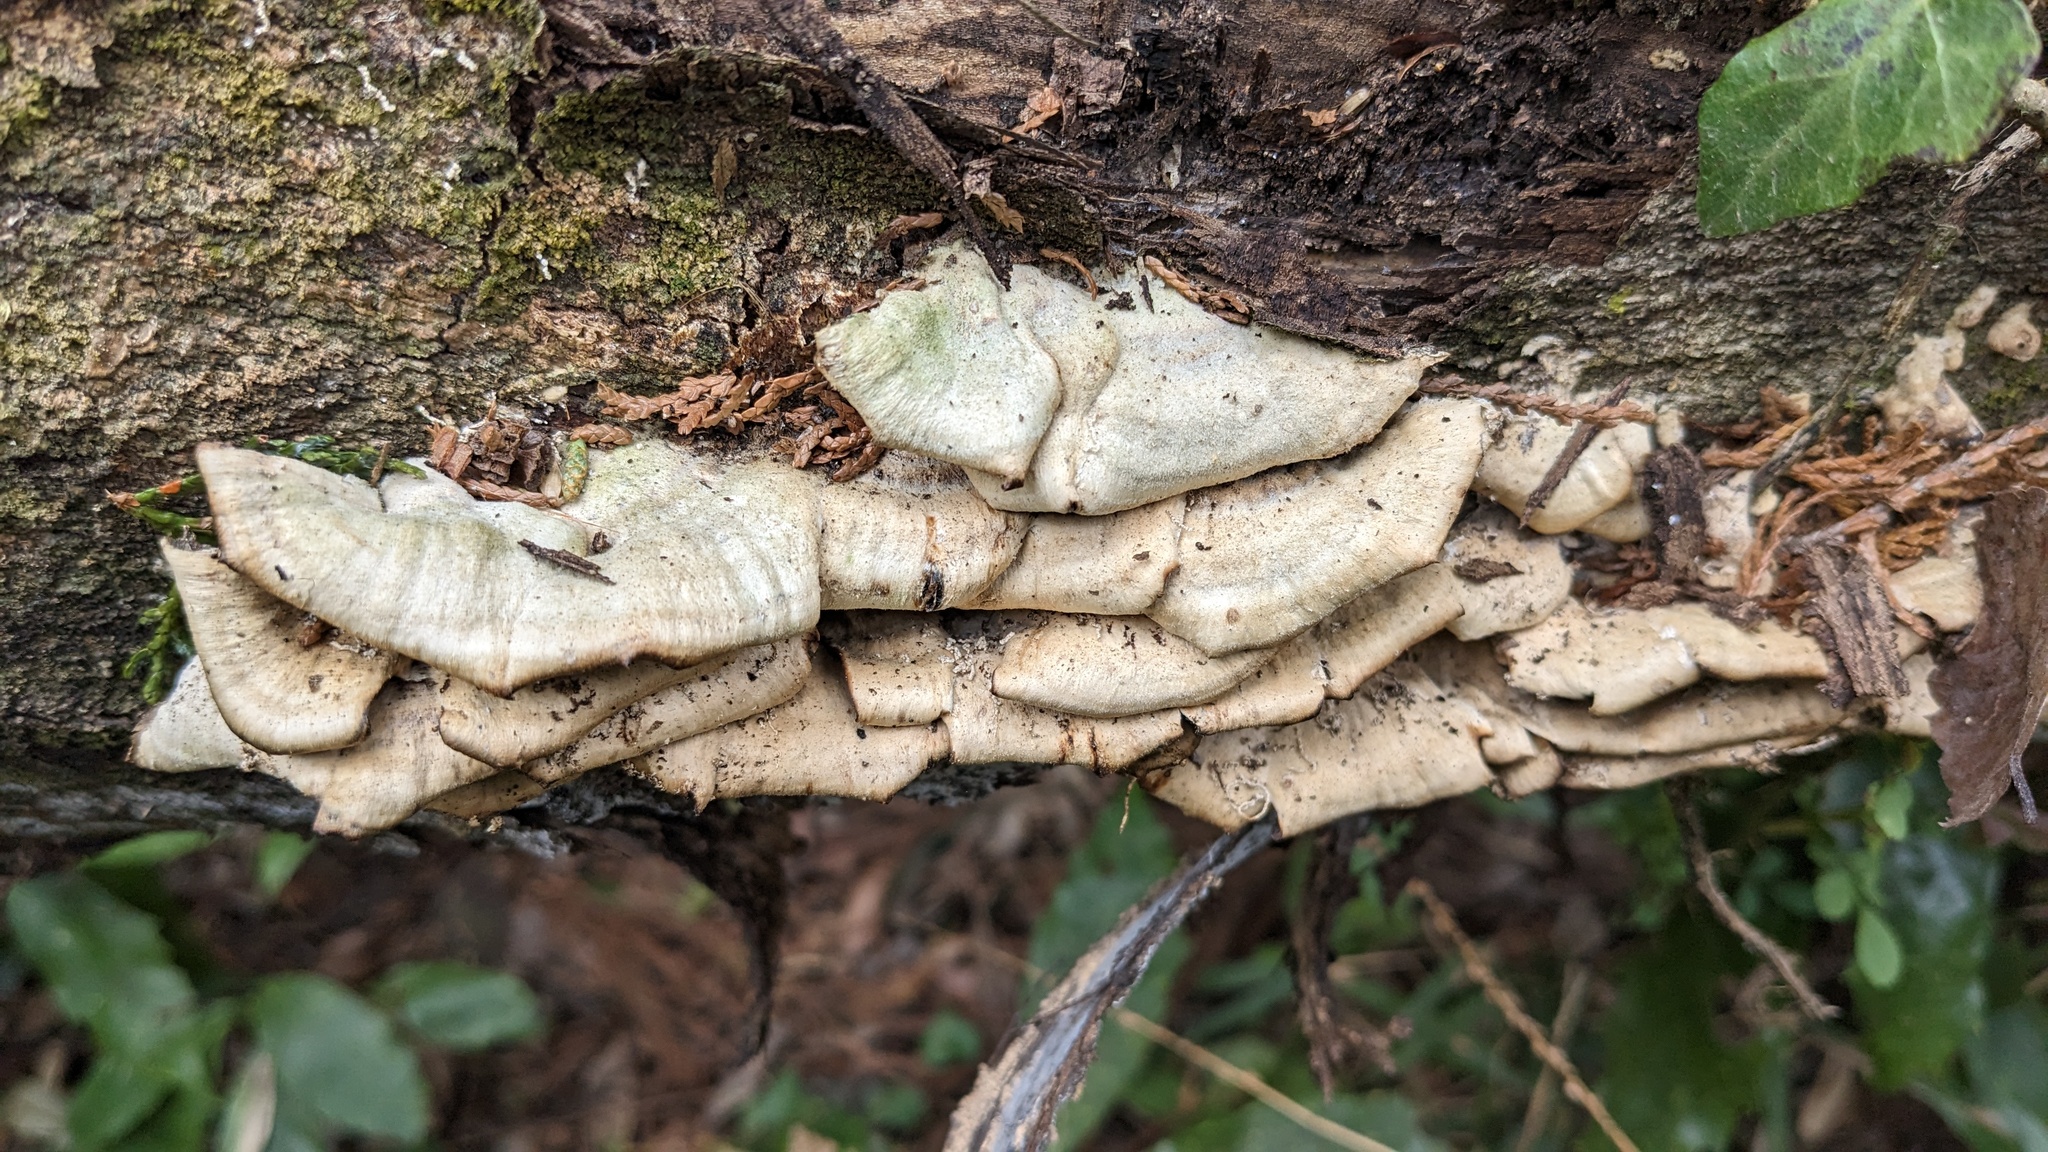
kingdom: Fungi
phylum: Basidiomycota
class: Agaricomycetes
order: Polyporales
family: Phanerochaetaceae
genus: Bjerkandera
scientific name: Bjerkandera adusta
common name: Smoky bracket
